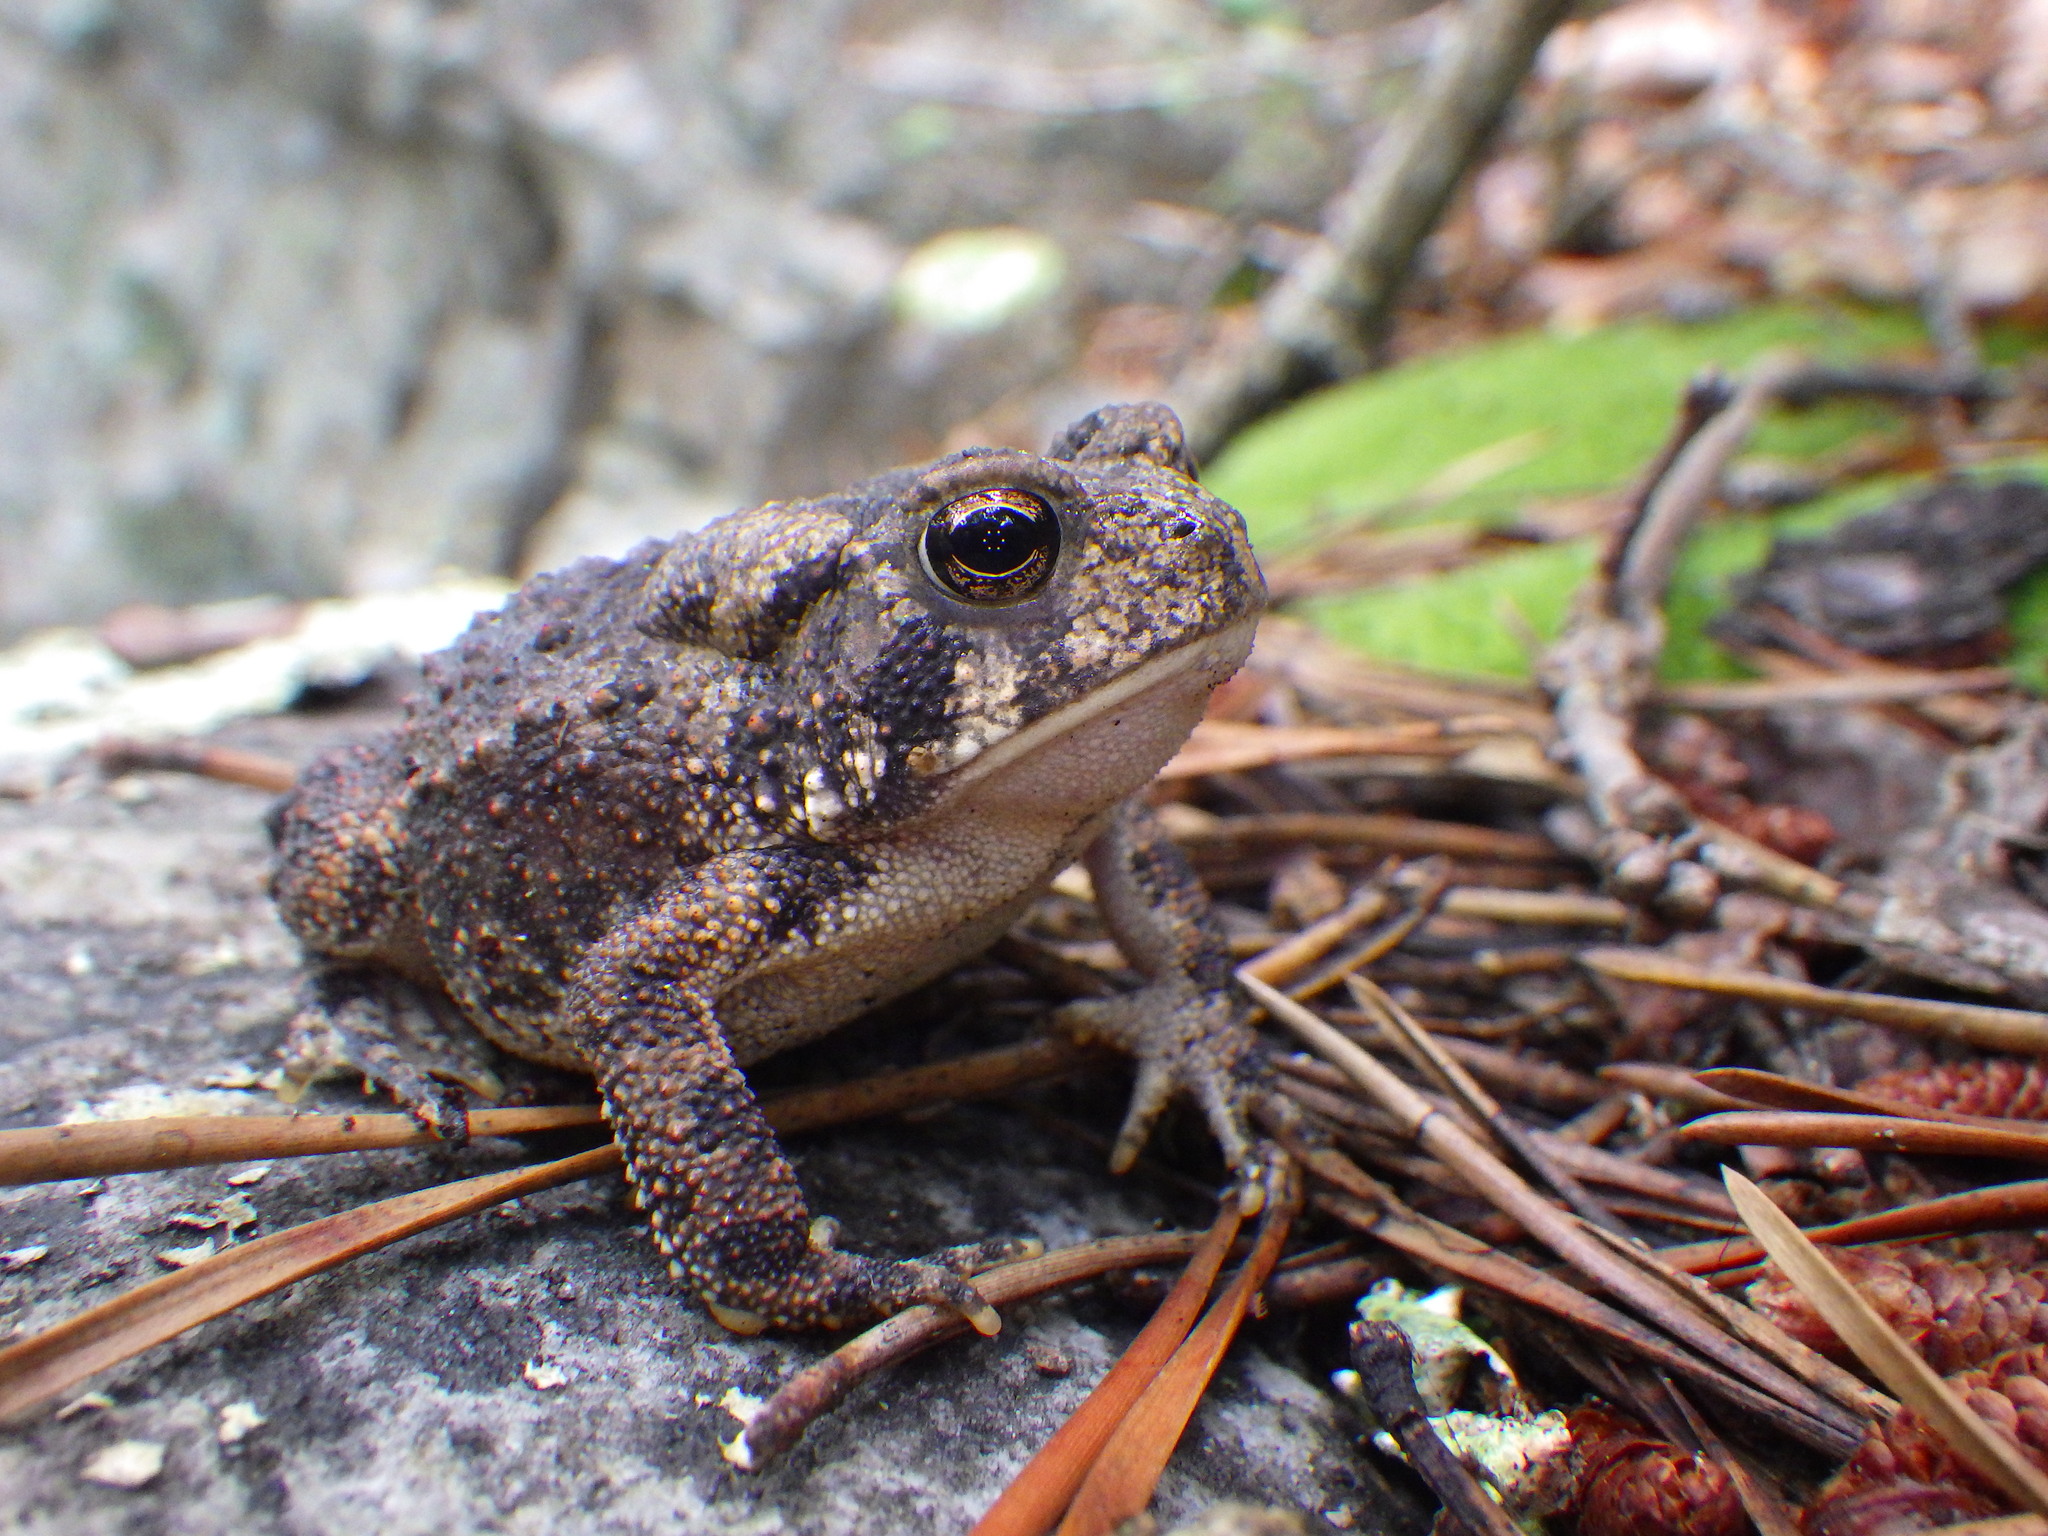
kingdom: Animalia
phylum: Chordata
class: Amphibia
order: Anura
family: Bufonidae
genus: Anaxyrus
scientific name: Anaxyrus americanus
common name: American toad
